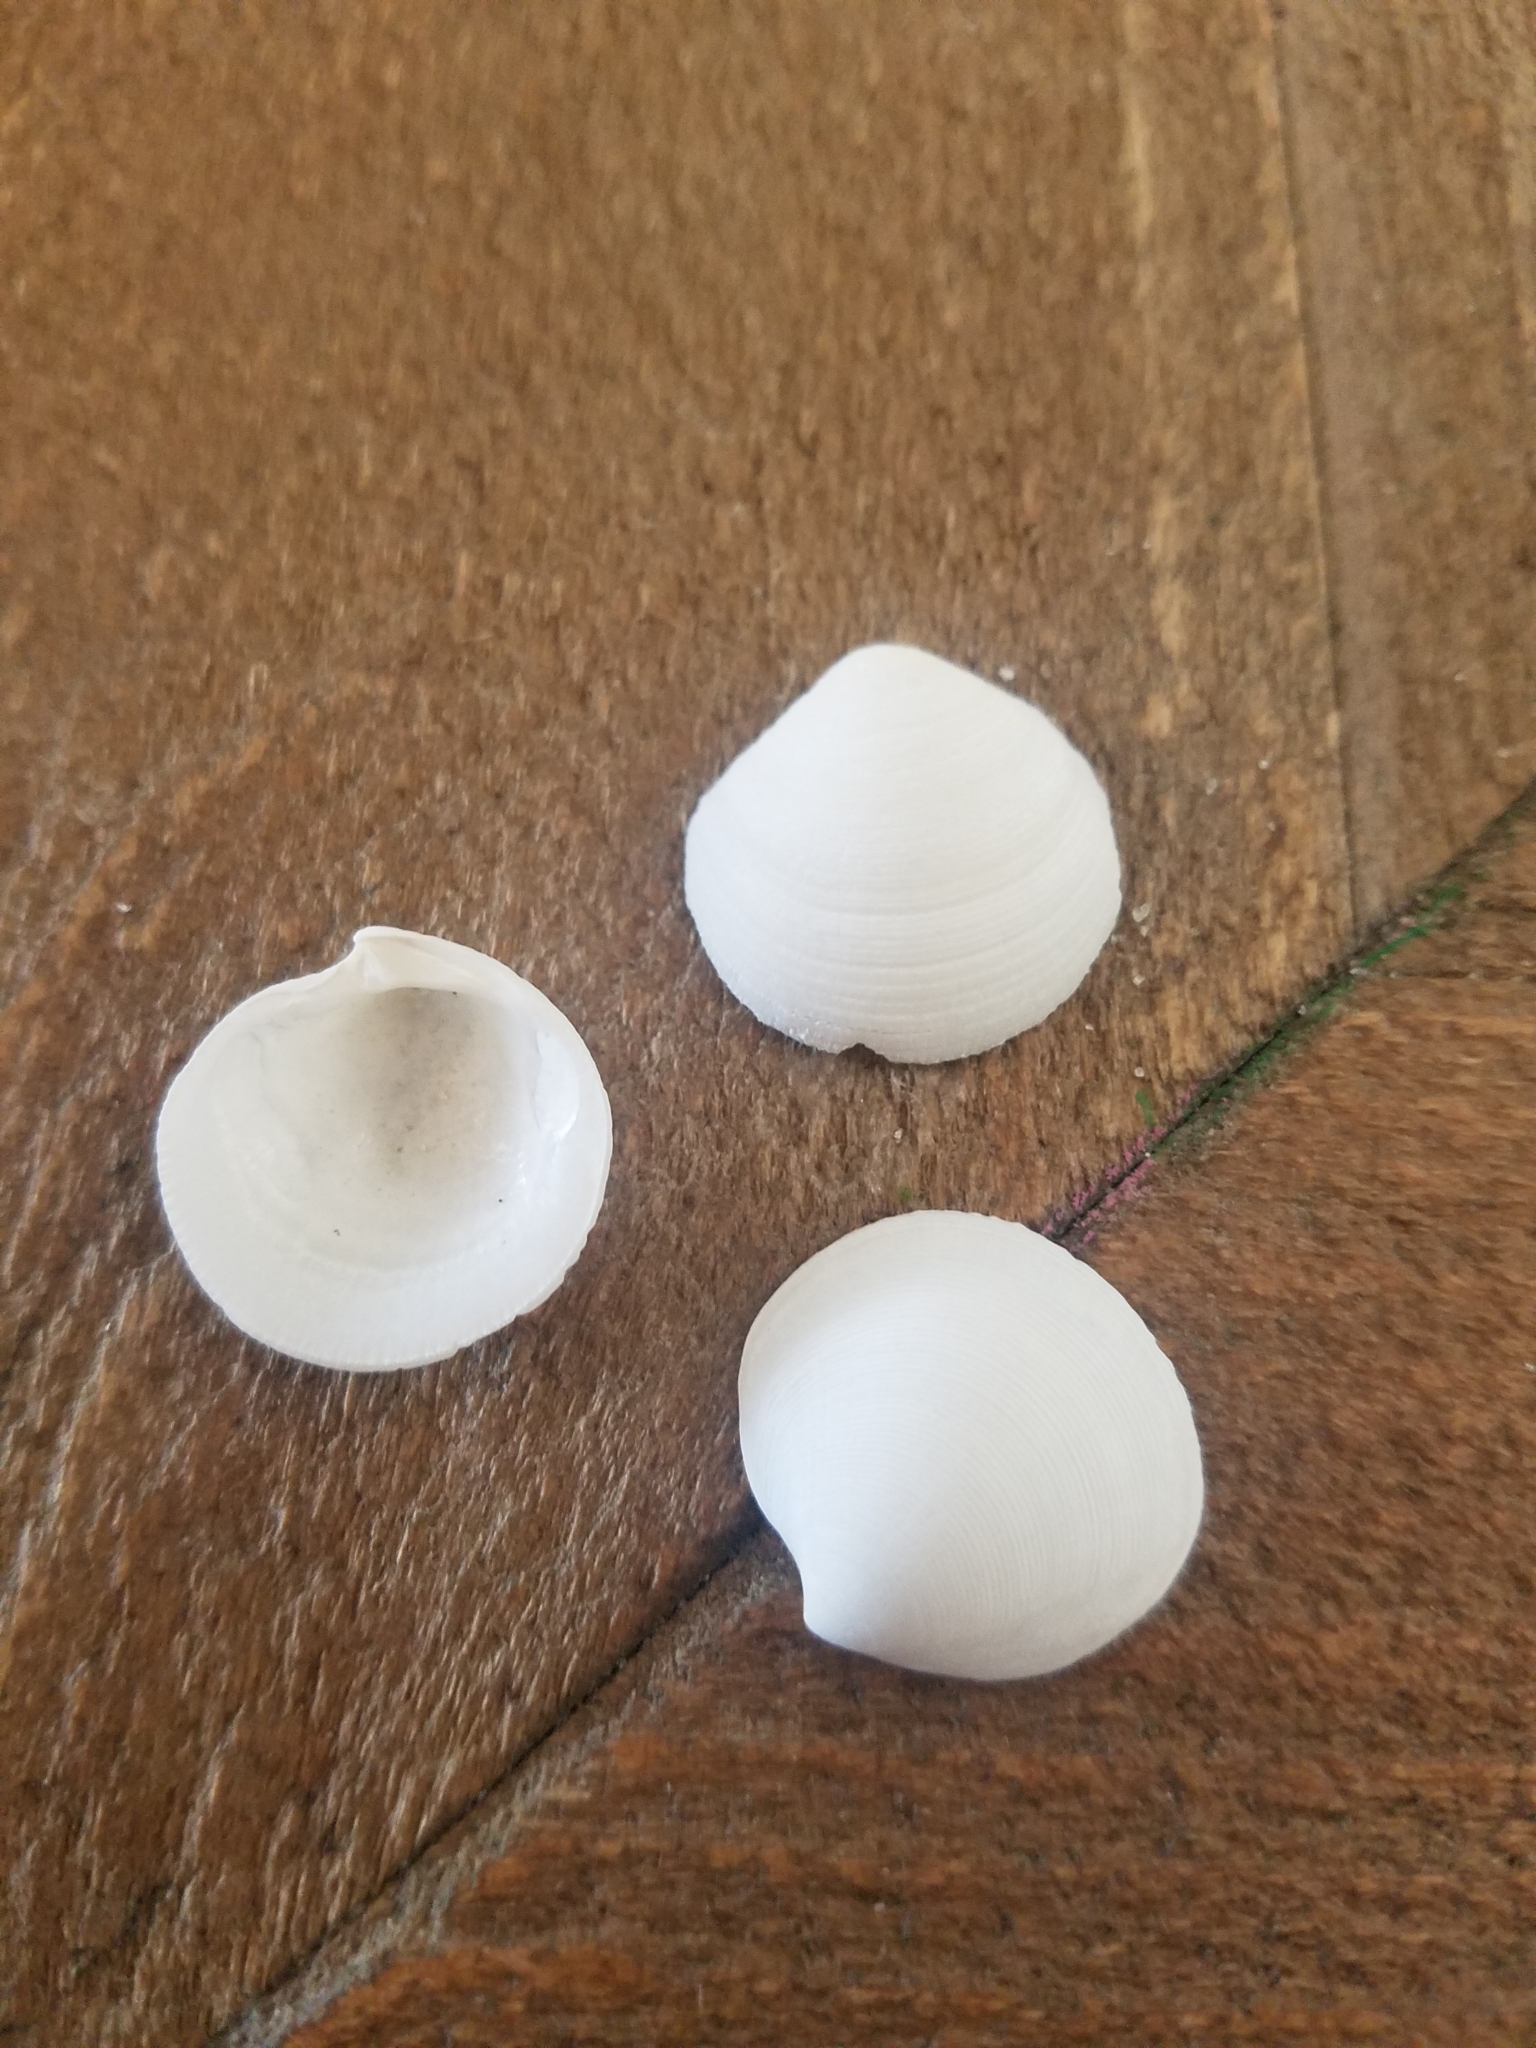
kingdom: Animalia
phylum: Mollusca
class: Bivalvia
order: Lucinida
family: Lucinidae
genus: Callucina
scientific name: Callucina keenae
